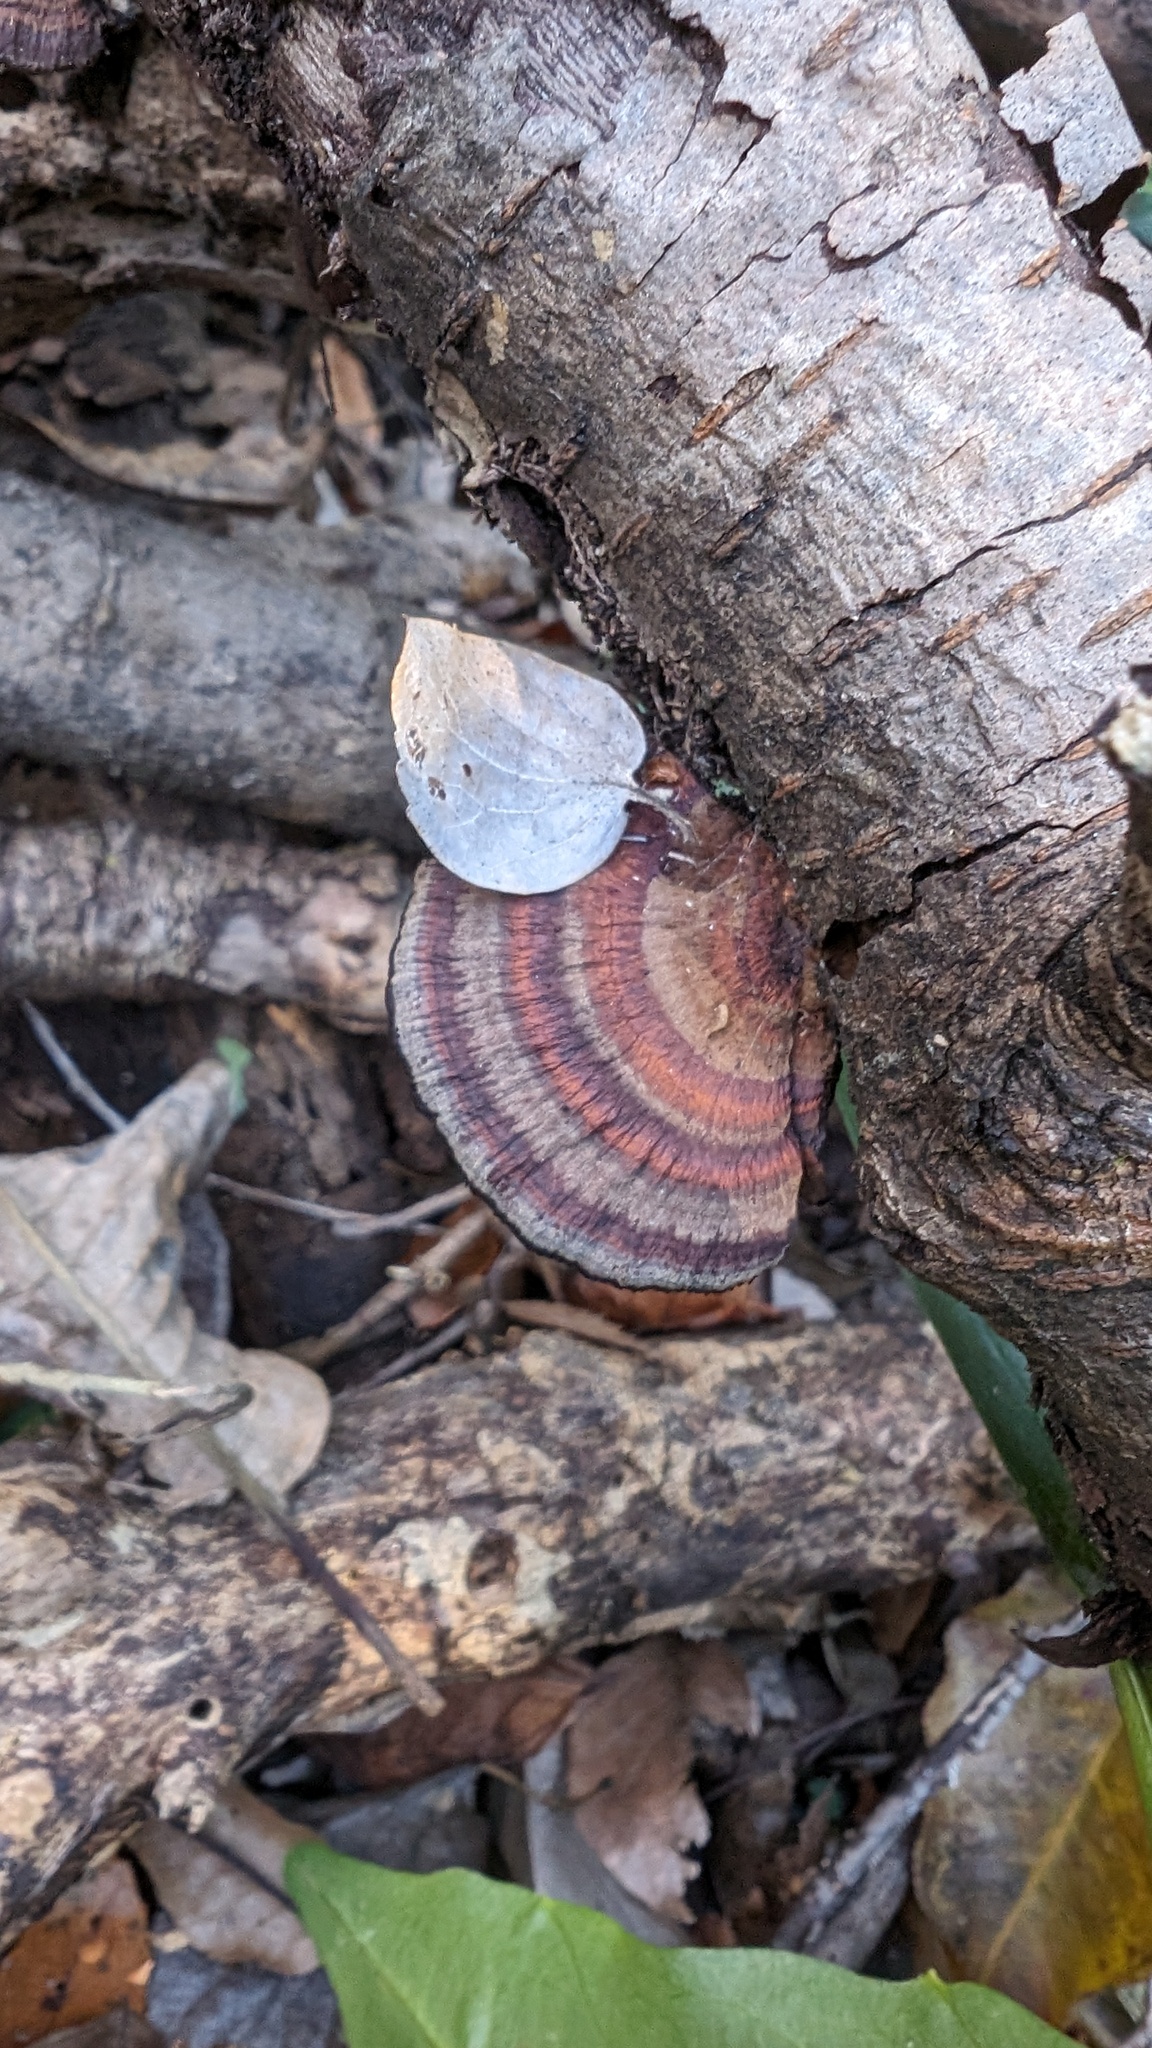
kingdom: Fungi
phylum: Basidiomycota
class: Agaricomycetes
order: Polyporales
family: Polyporaceae
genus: Daedaleopsis
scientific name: Daedaleopsis tricolor
